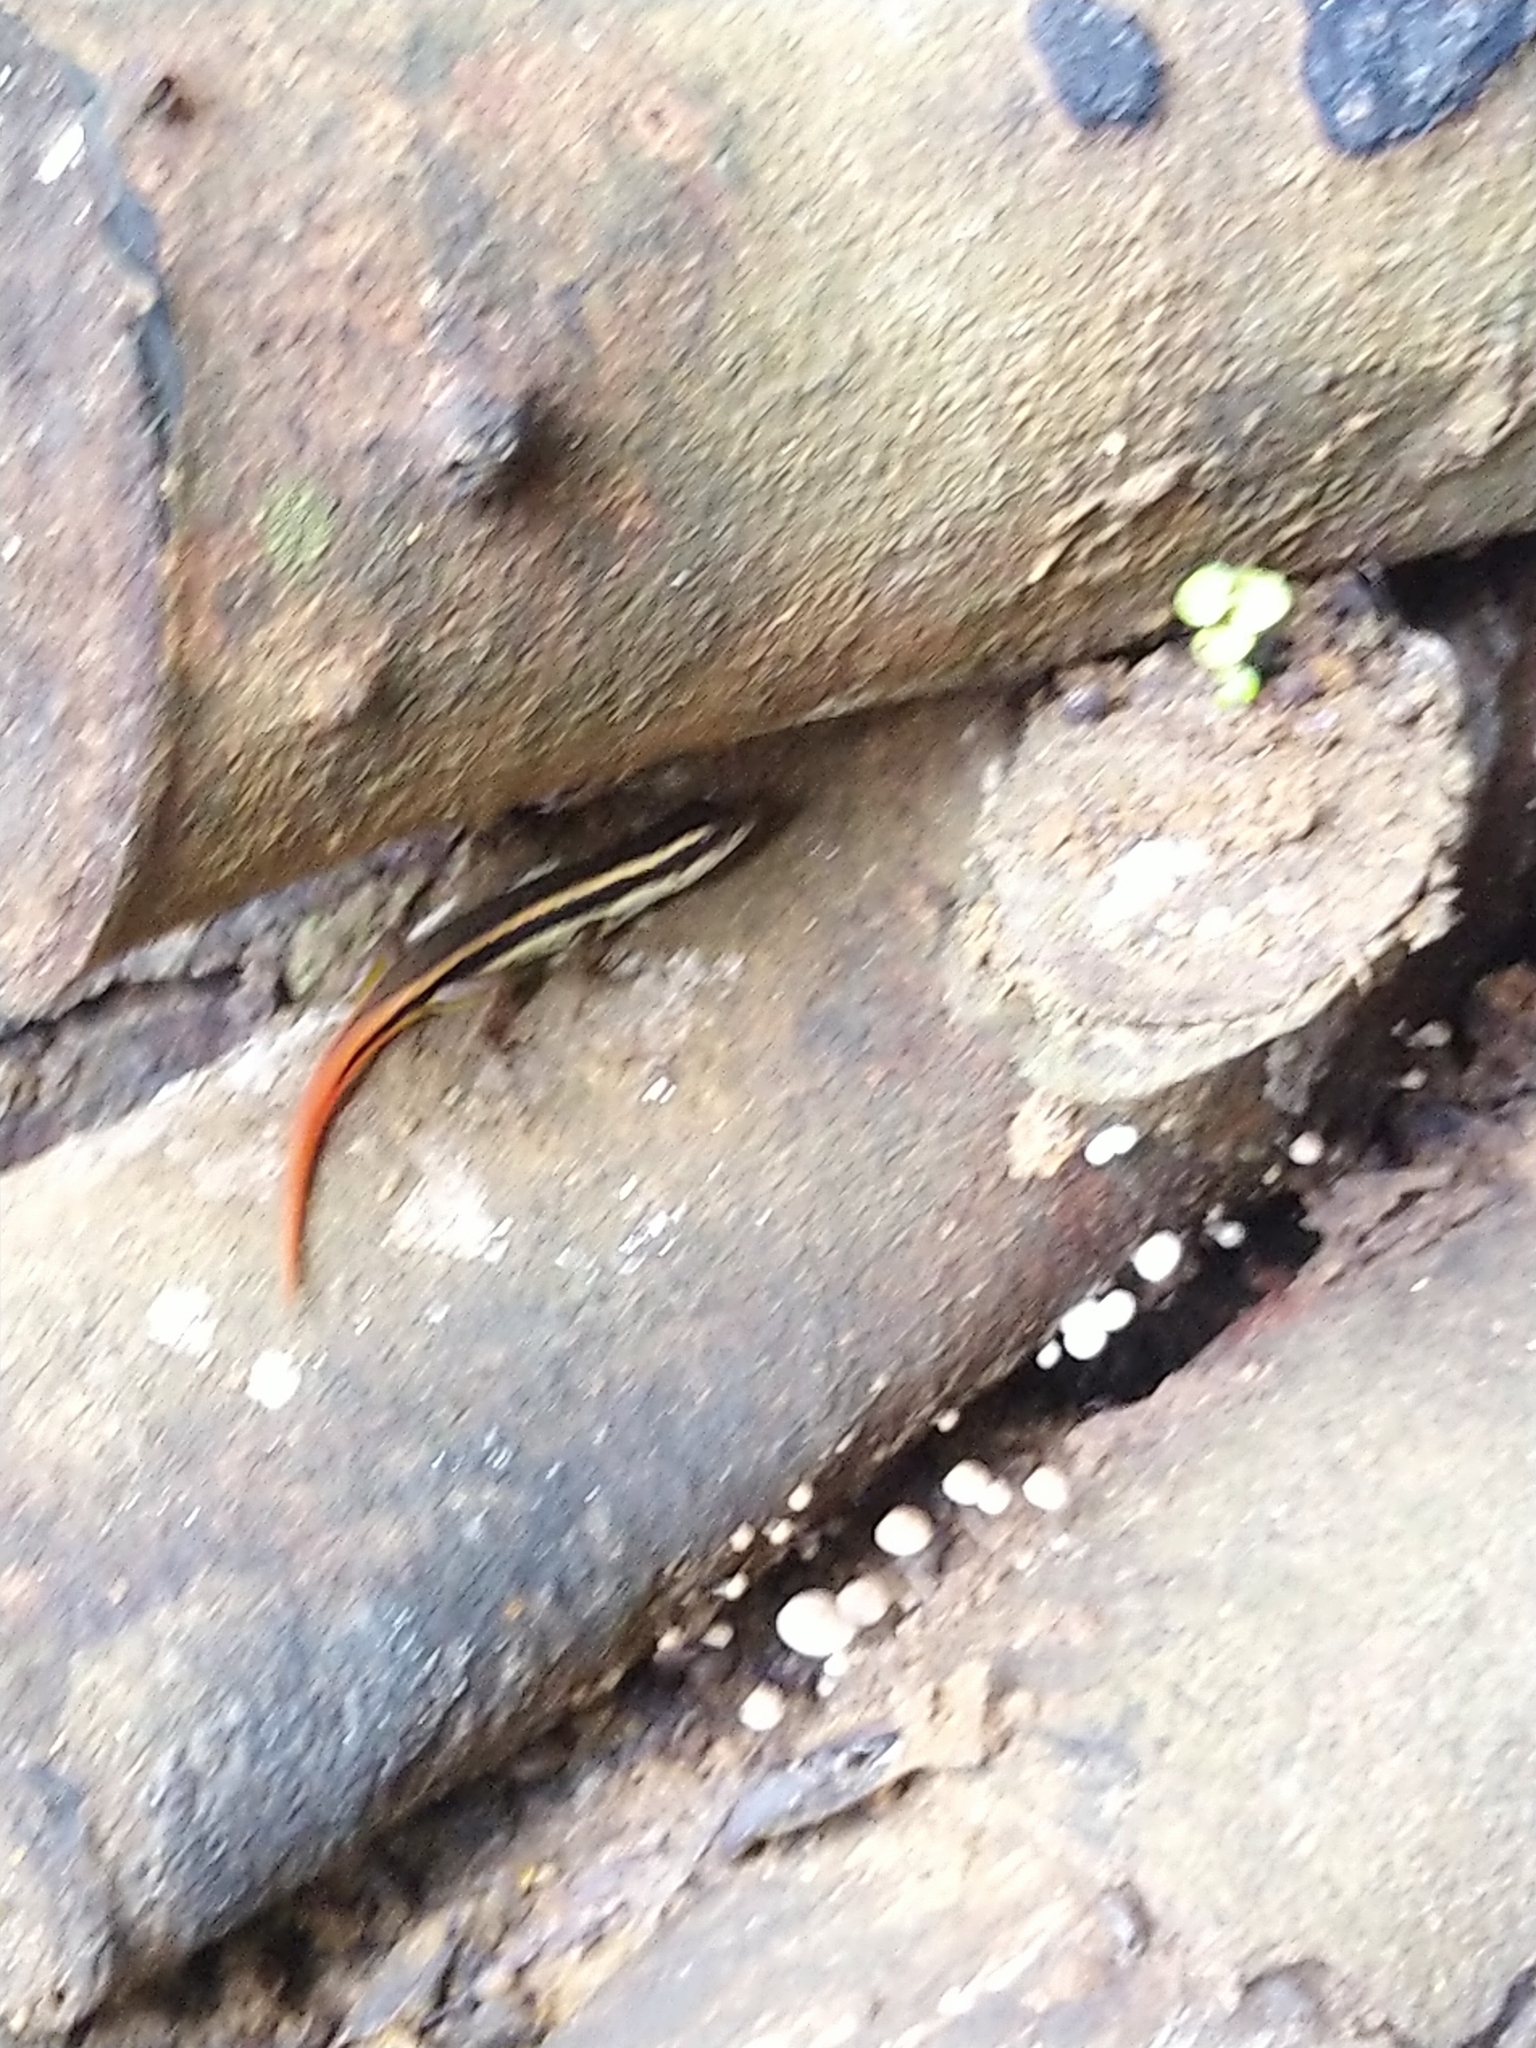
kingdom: Animalia
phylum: Chordata
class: Squamata
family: Scincidae
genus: Sphenomorphus
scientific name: Sphenomorphus dussumieri
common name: Dussumier's forest skink
